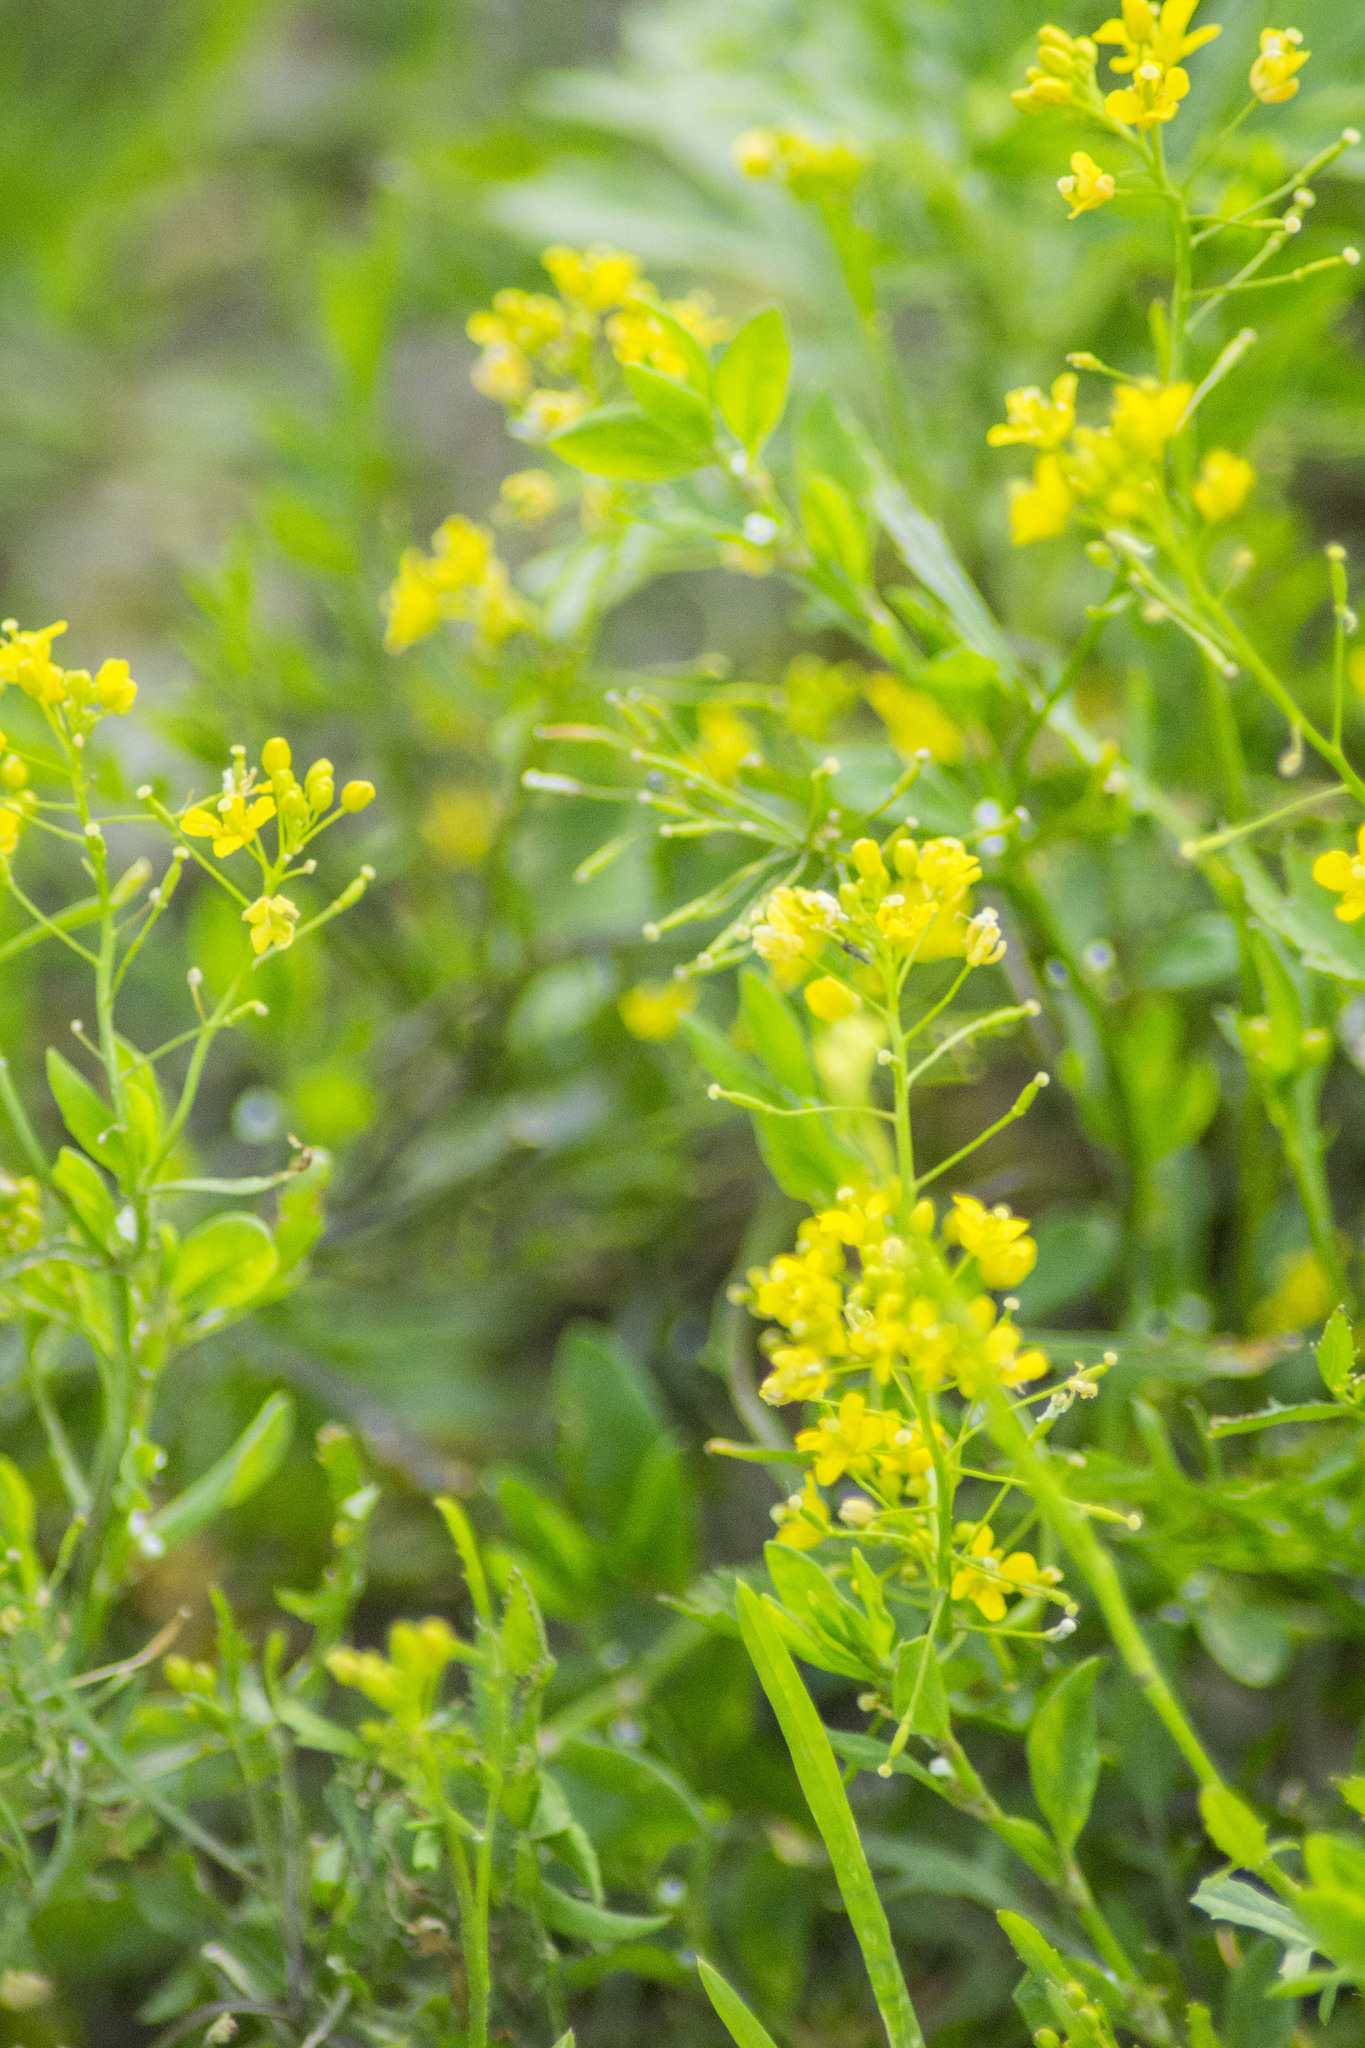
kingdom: Plantae
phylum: Tracheophyta
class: Magnoliopsida
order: Asterales
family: Asteraceae
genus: Matricaria
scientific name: Matricaria discoidea
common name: Disc mayweed
